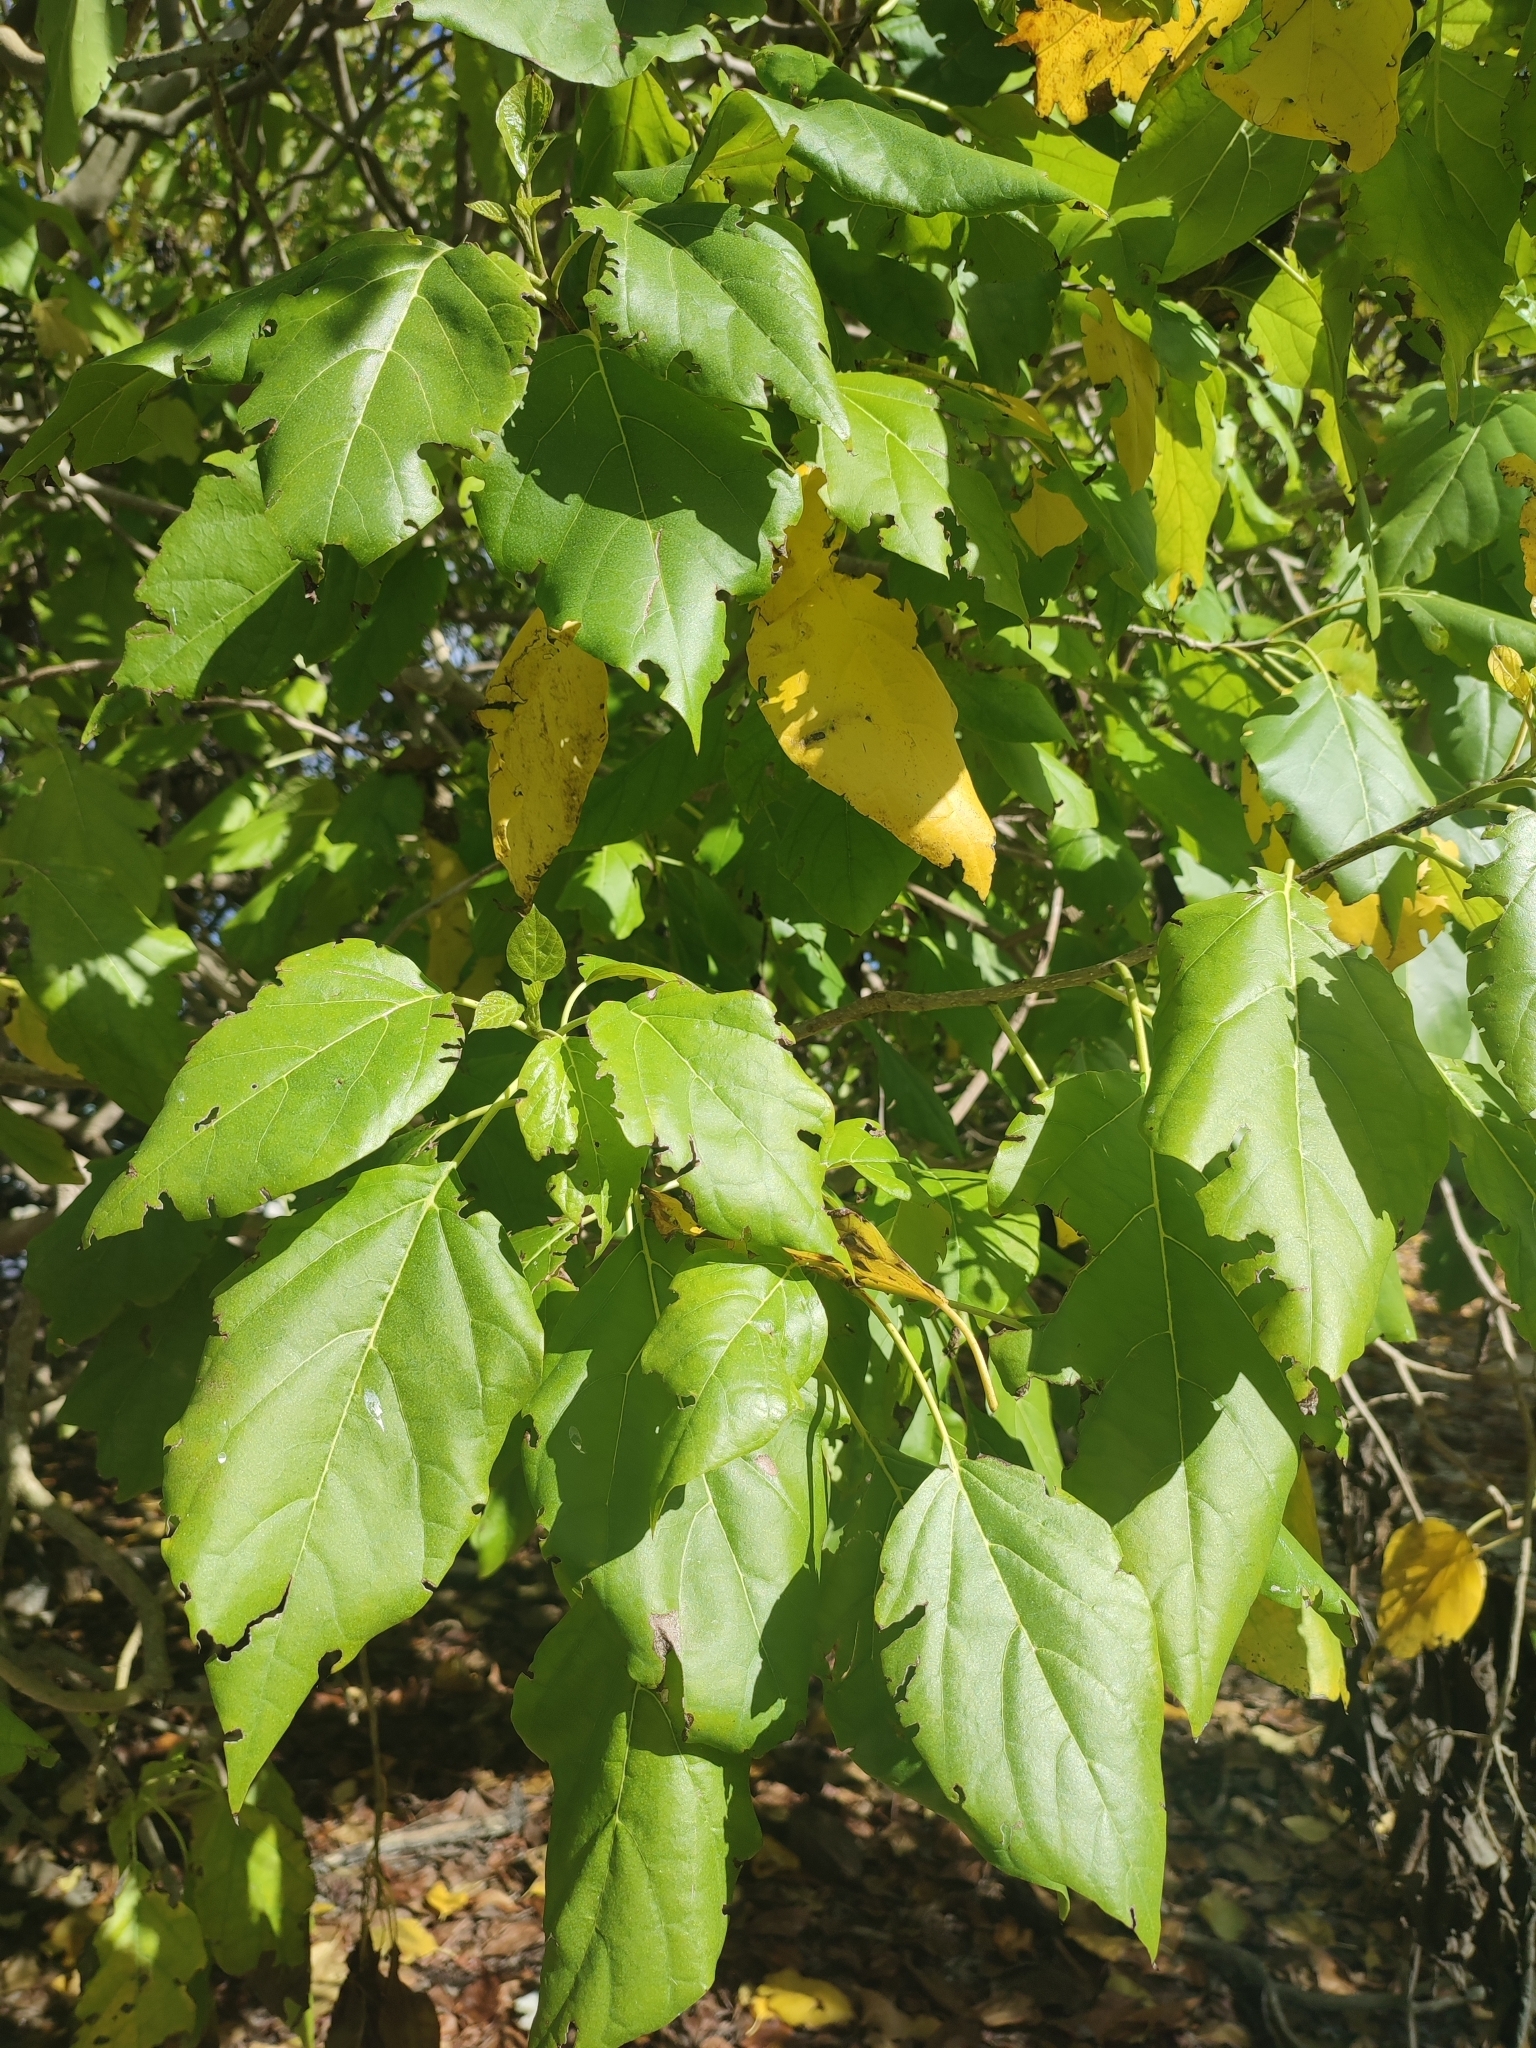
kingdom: Plantae
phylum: Tracheophyta
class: Magnoliopsida
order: Rosales
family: Urticaceae
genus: Pipturus
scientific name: Pipturus argenteus
